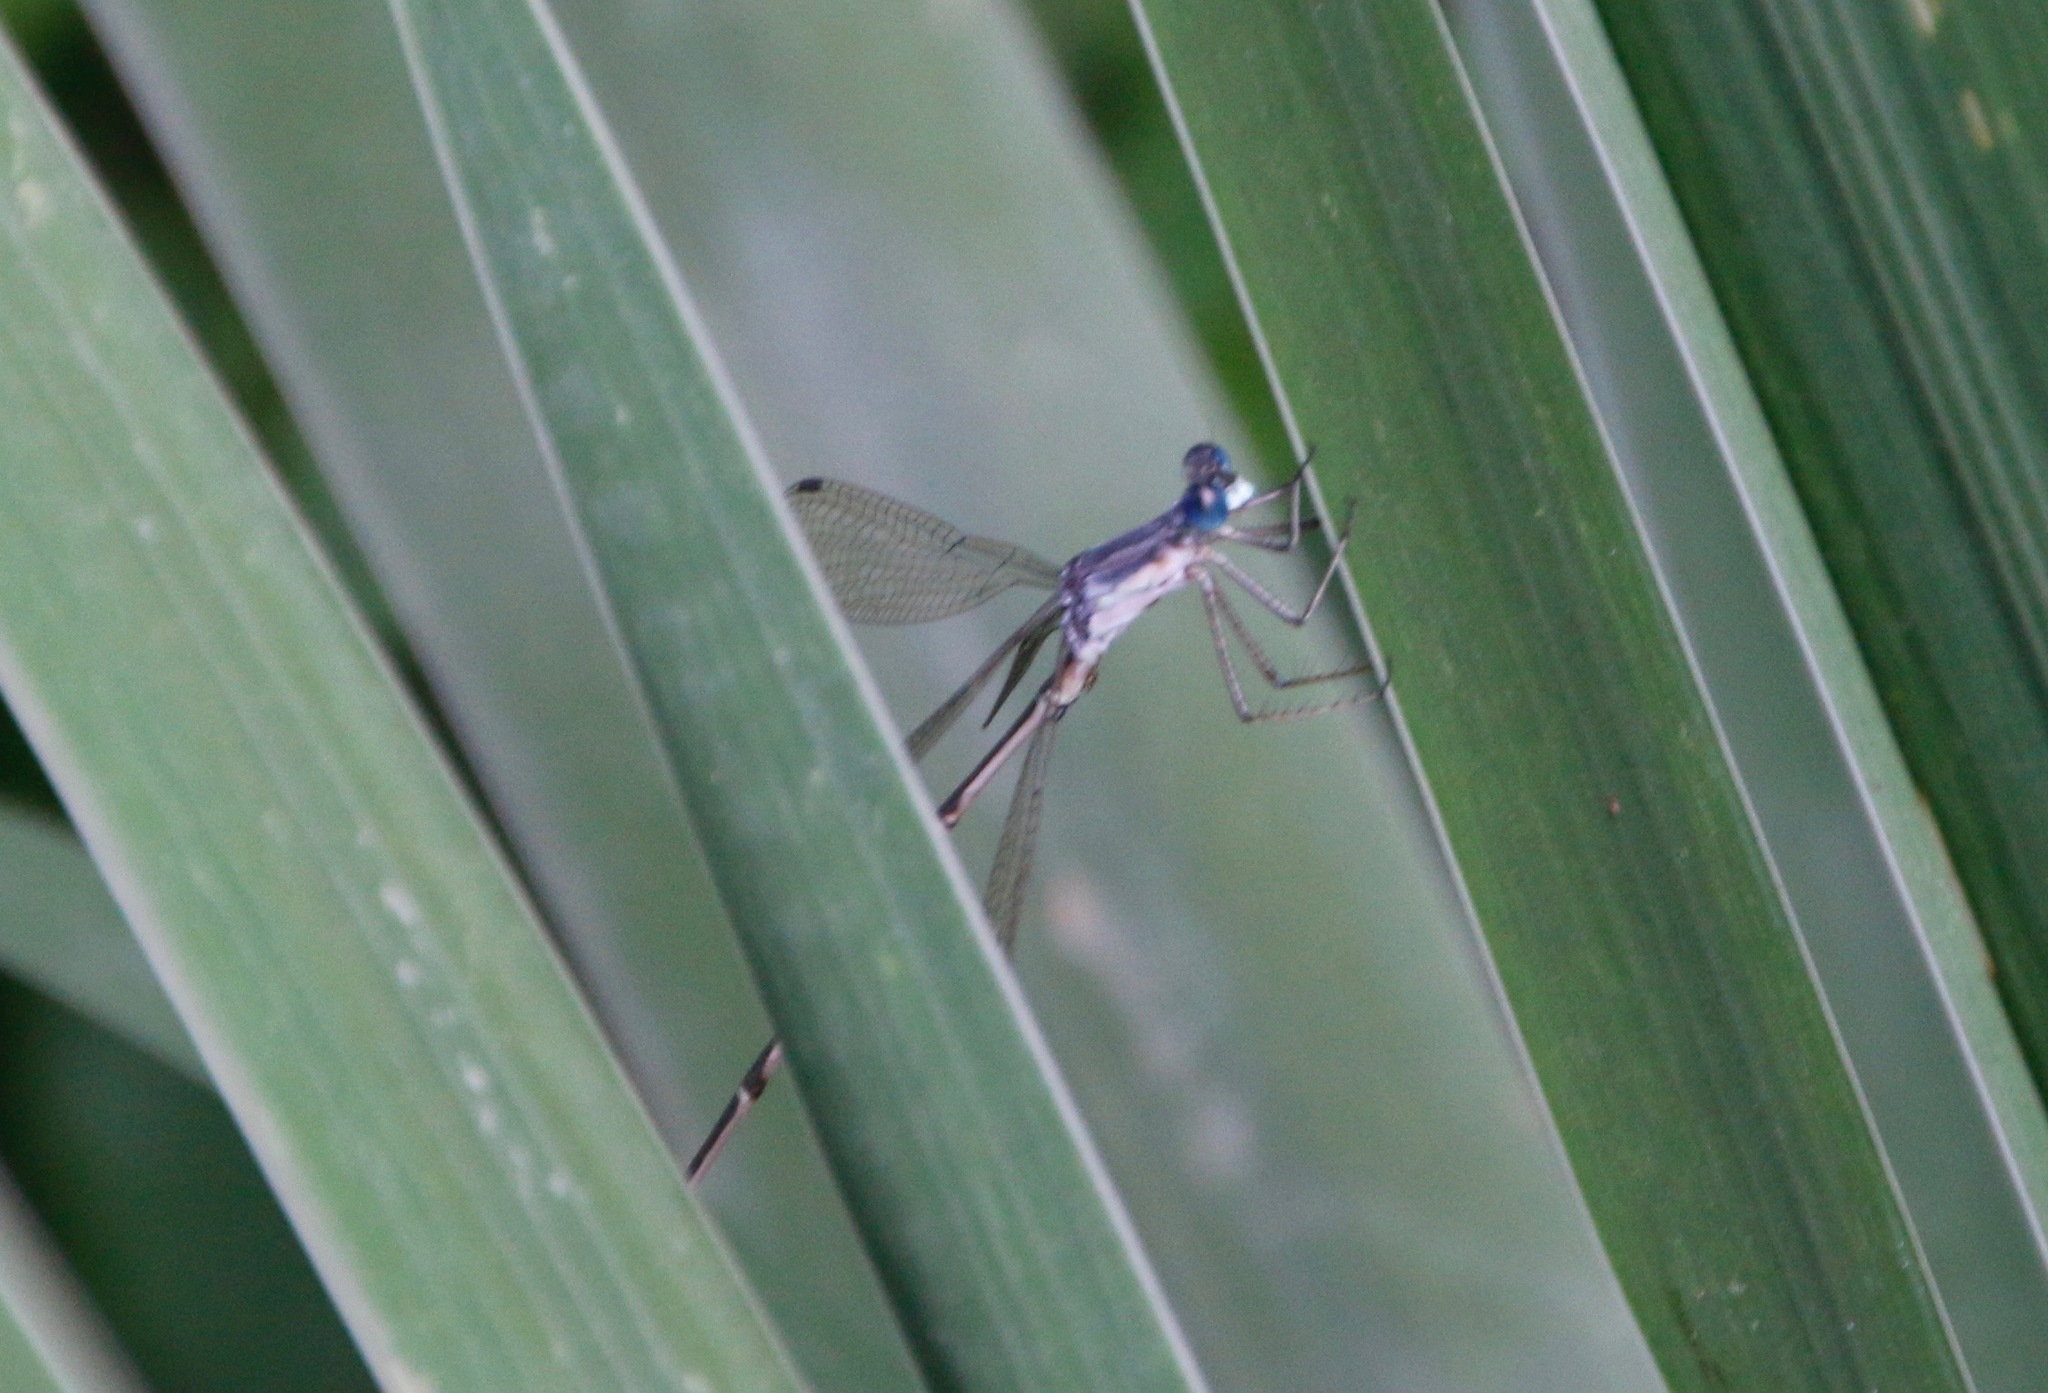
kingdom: Animalia
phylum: Arthropoda
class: Insecta
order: Odonata
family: Lestidae
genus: Lestes
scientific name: Lestes rectangularis
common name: Slender spreadwing
